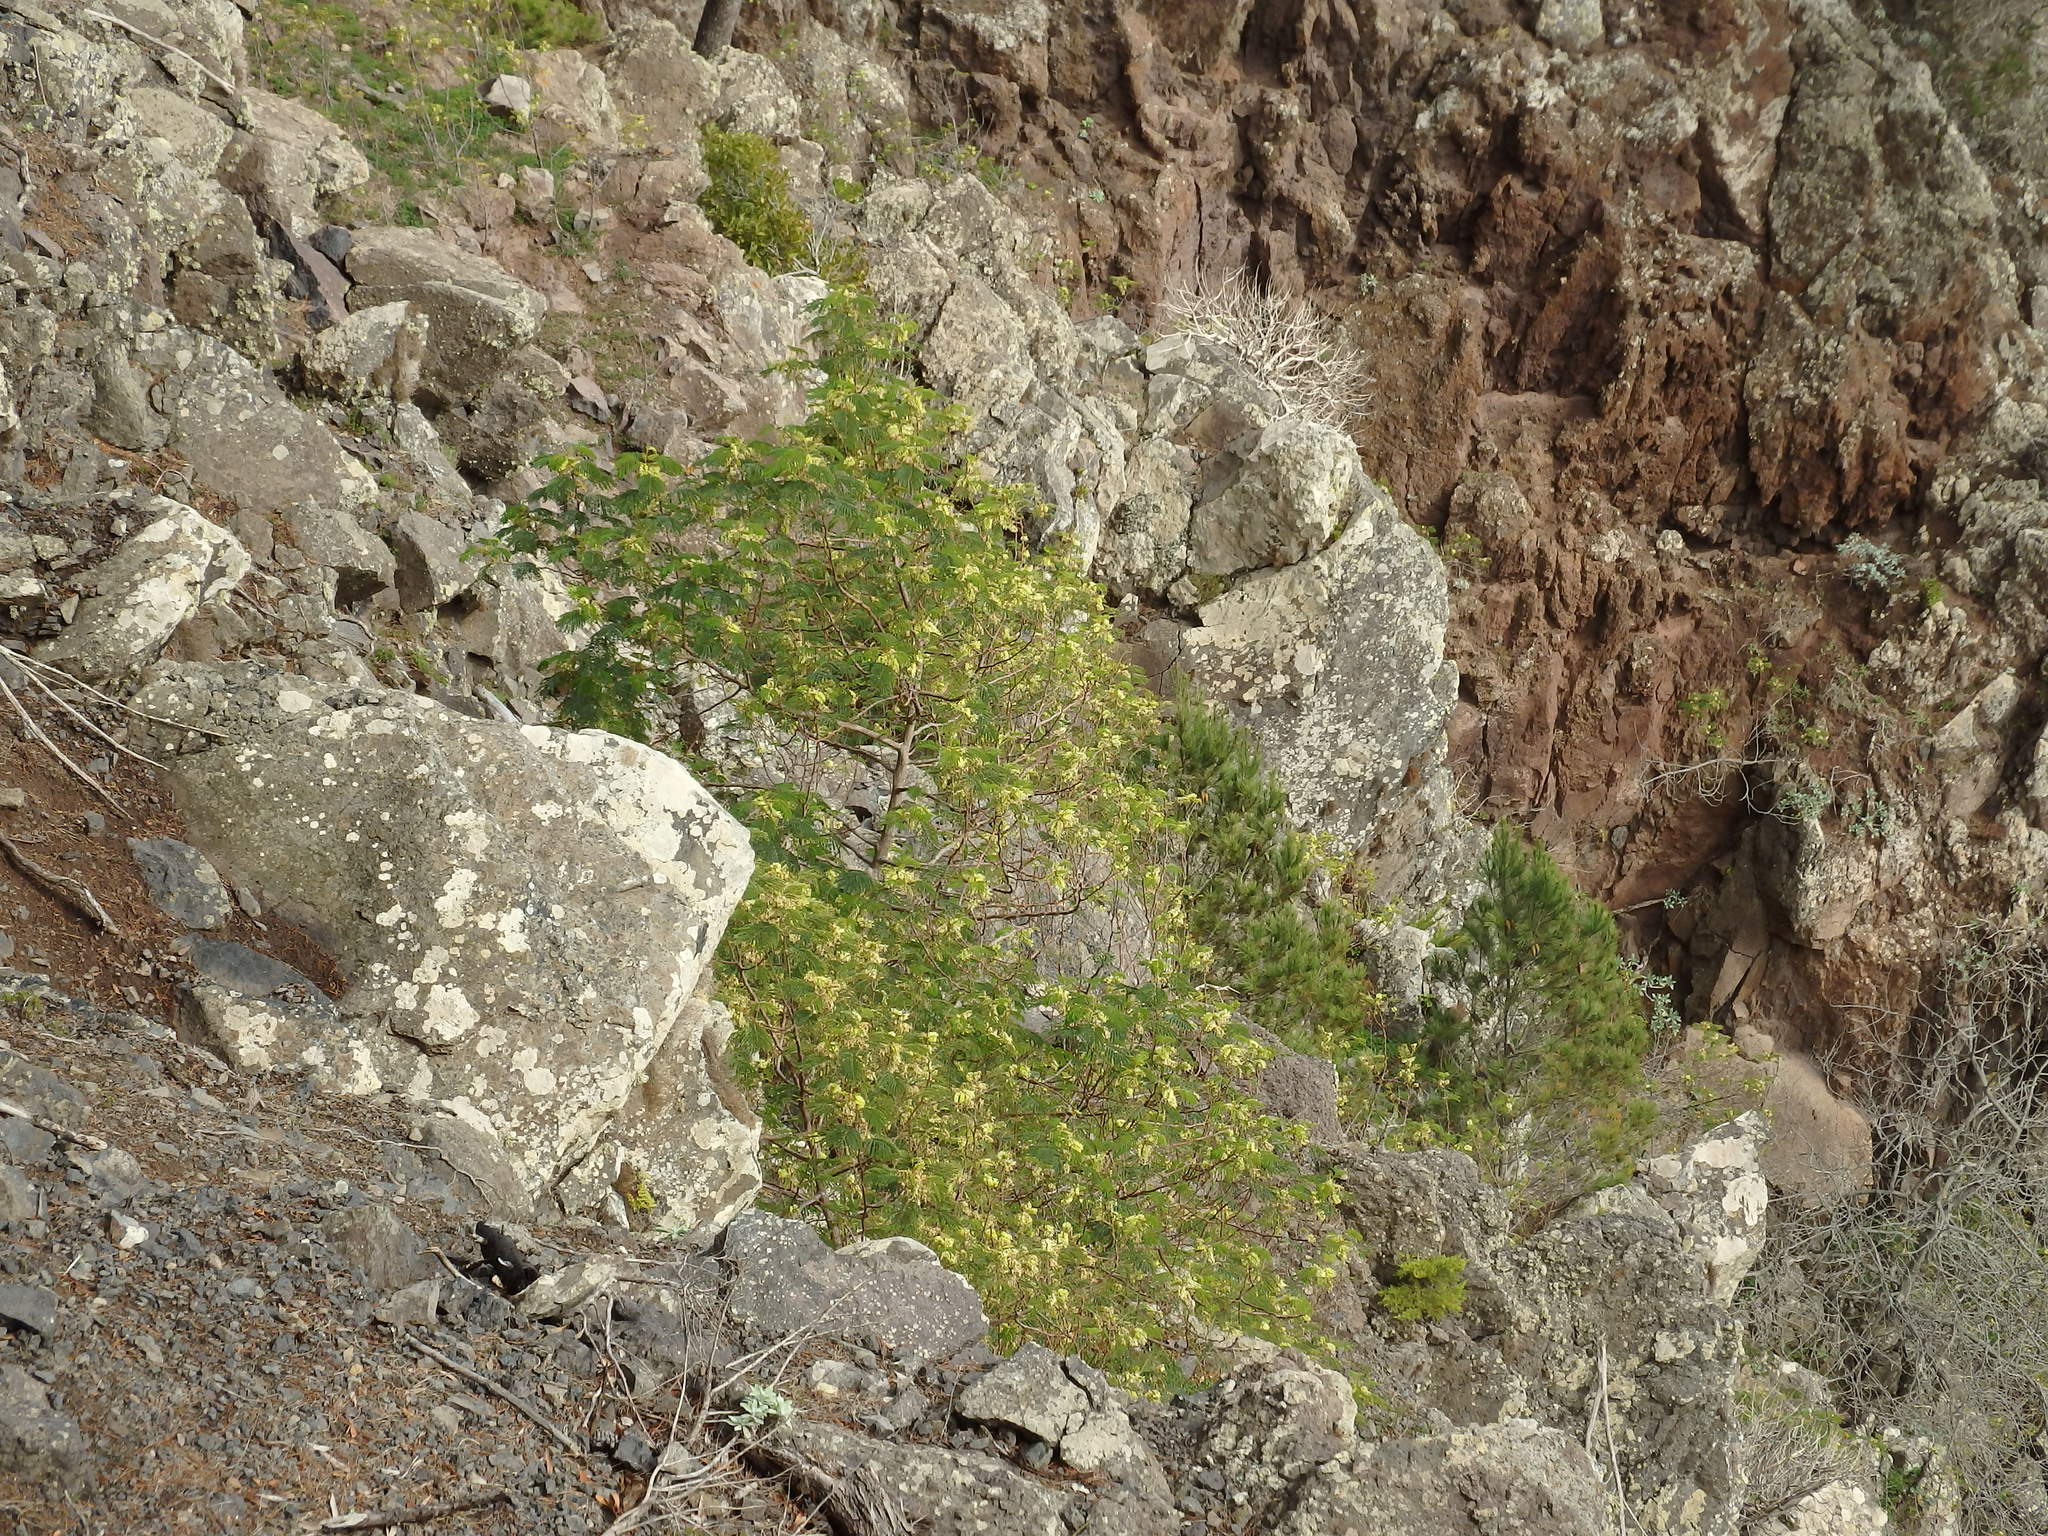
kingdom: Plantae
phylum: Tracheophyta
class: Magnoliopsida
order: Fabales
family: Fabaceae
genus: Paraserianthes
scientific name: Paraserianthes lophantha
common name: Plume albizia
